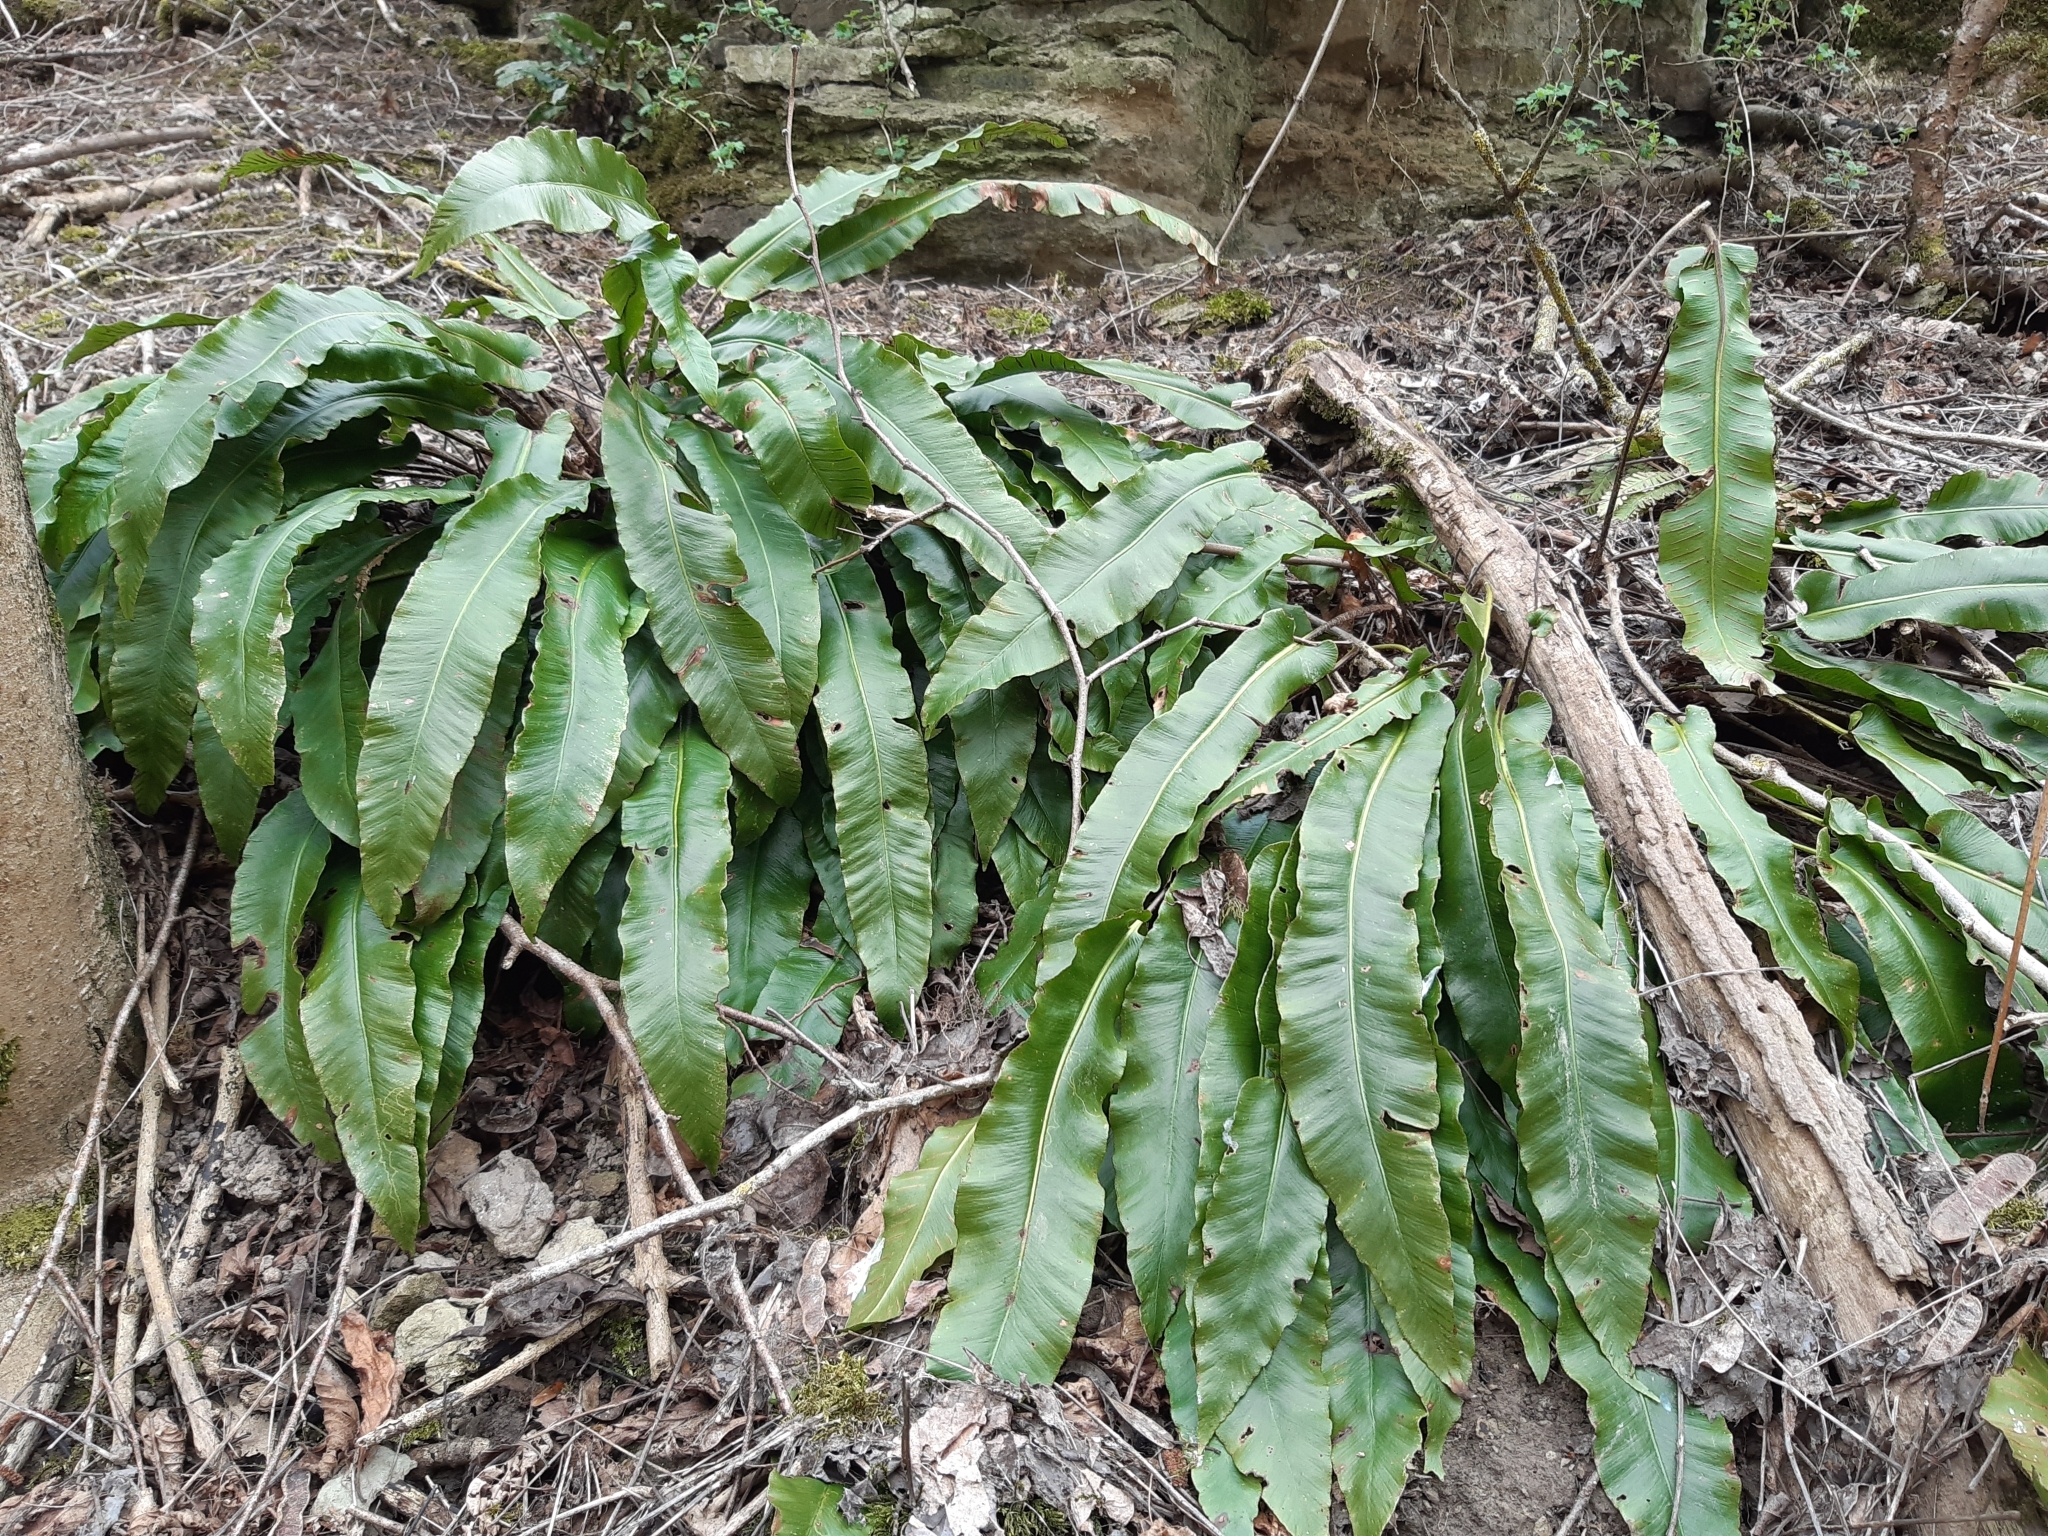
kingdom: Plantae
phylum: Tracheophyta
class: Polypodiopsida
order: Polypodiales
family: Aspleniaceae
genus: Asplenium
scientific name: Asplenium scolopendrium
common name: Hart's-tongue fern
